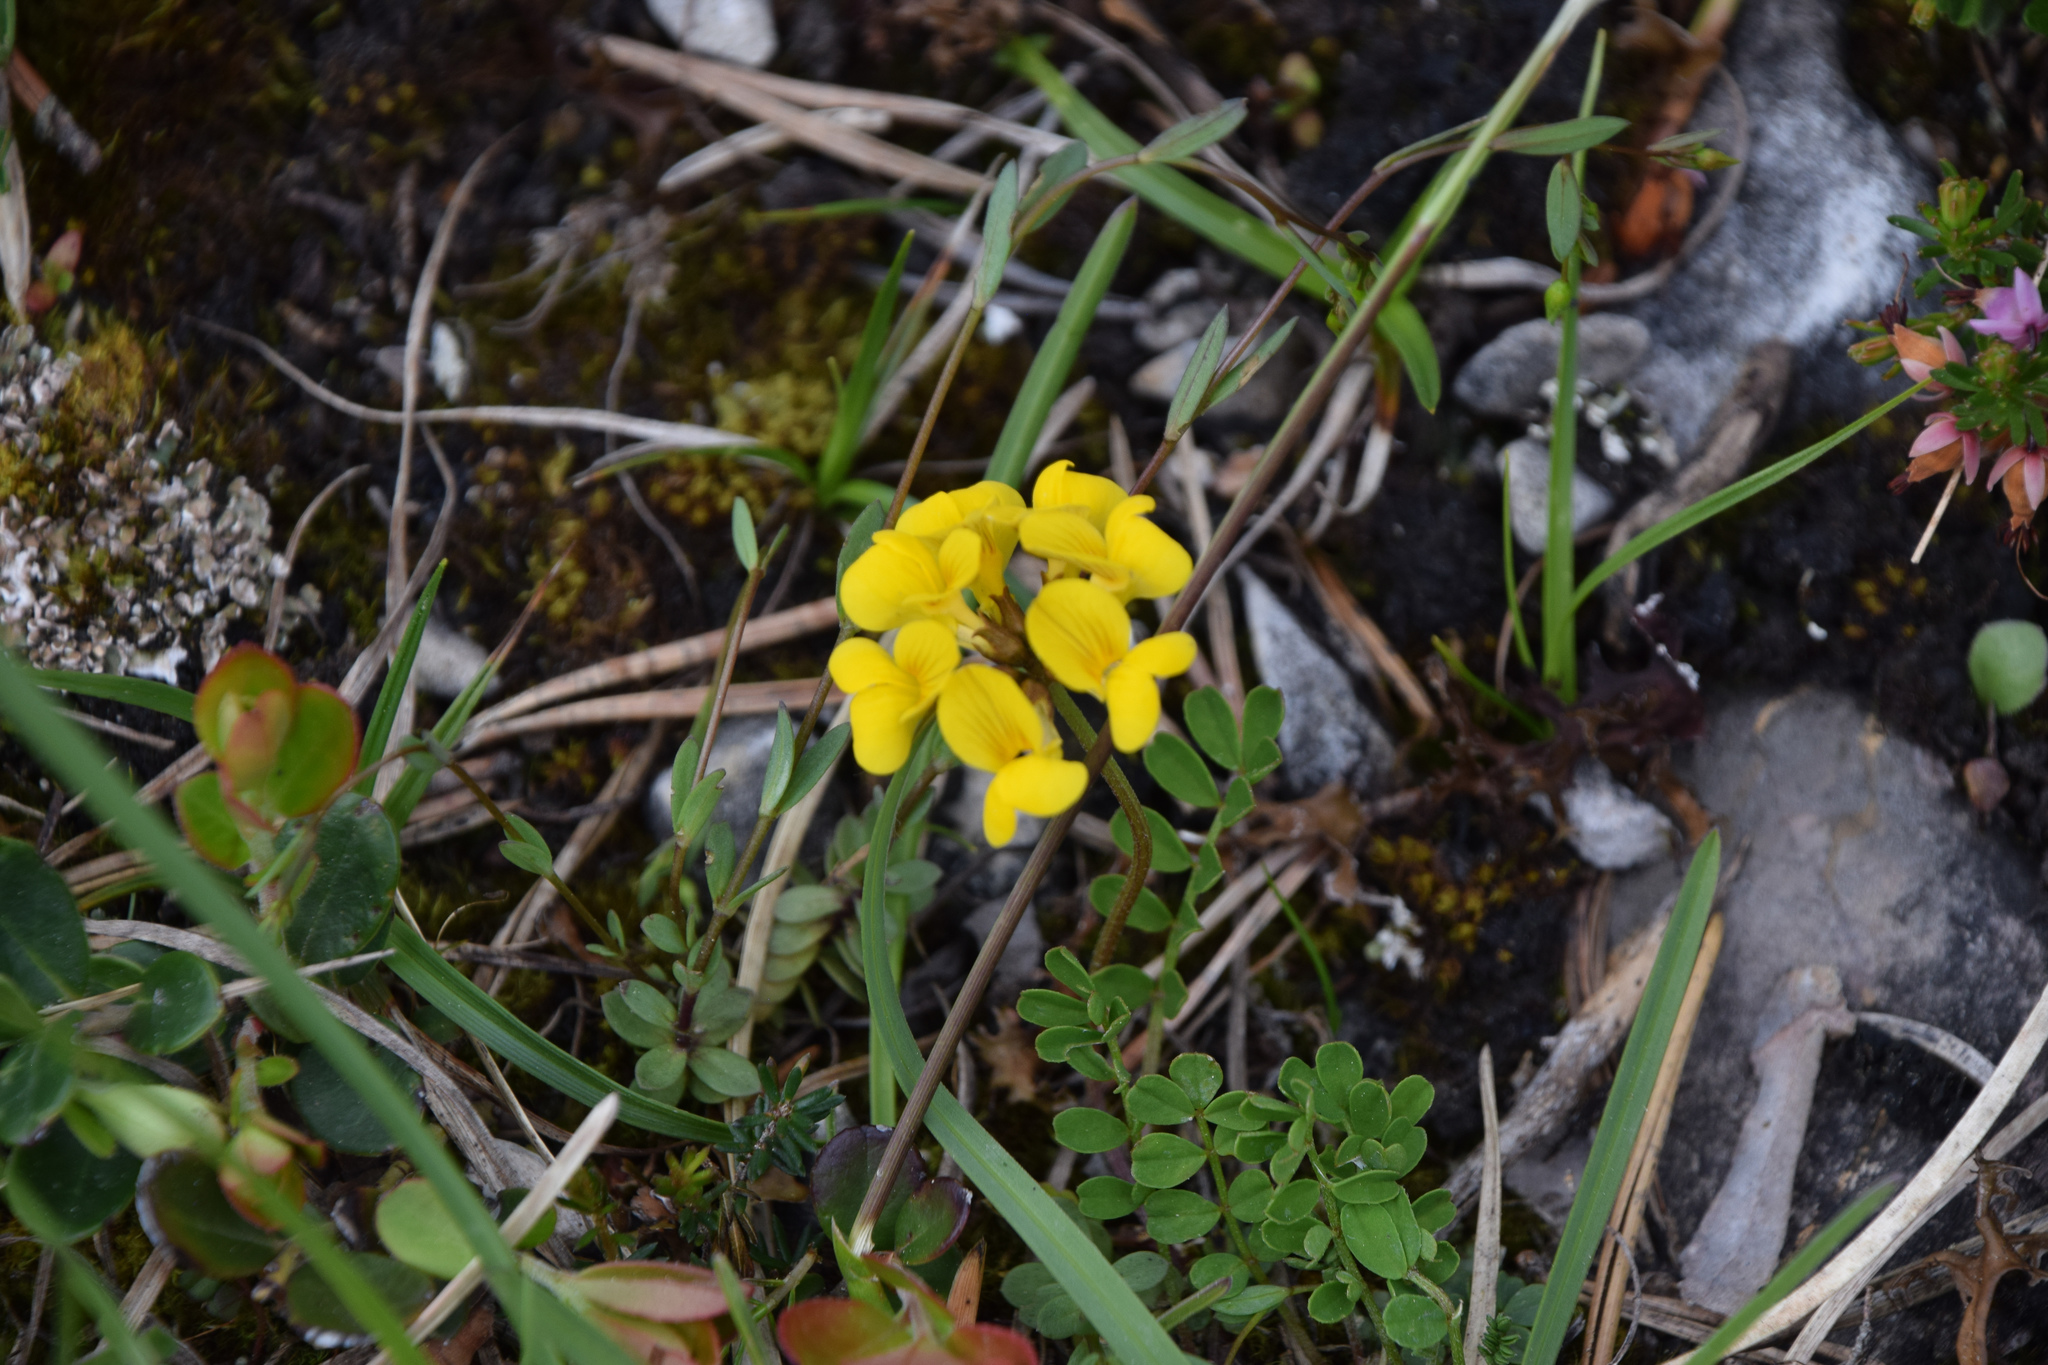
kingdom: Plantae
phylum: Tracheophyta
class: Magnoliopsida
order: Fabales
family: Fabaceae
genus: Hippocrepis
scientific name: Hippocrepis comosa
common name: Horseshoe vetch
